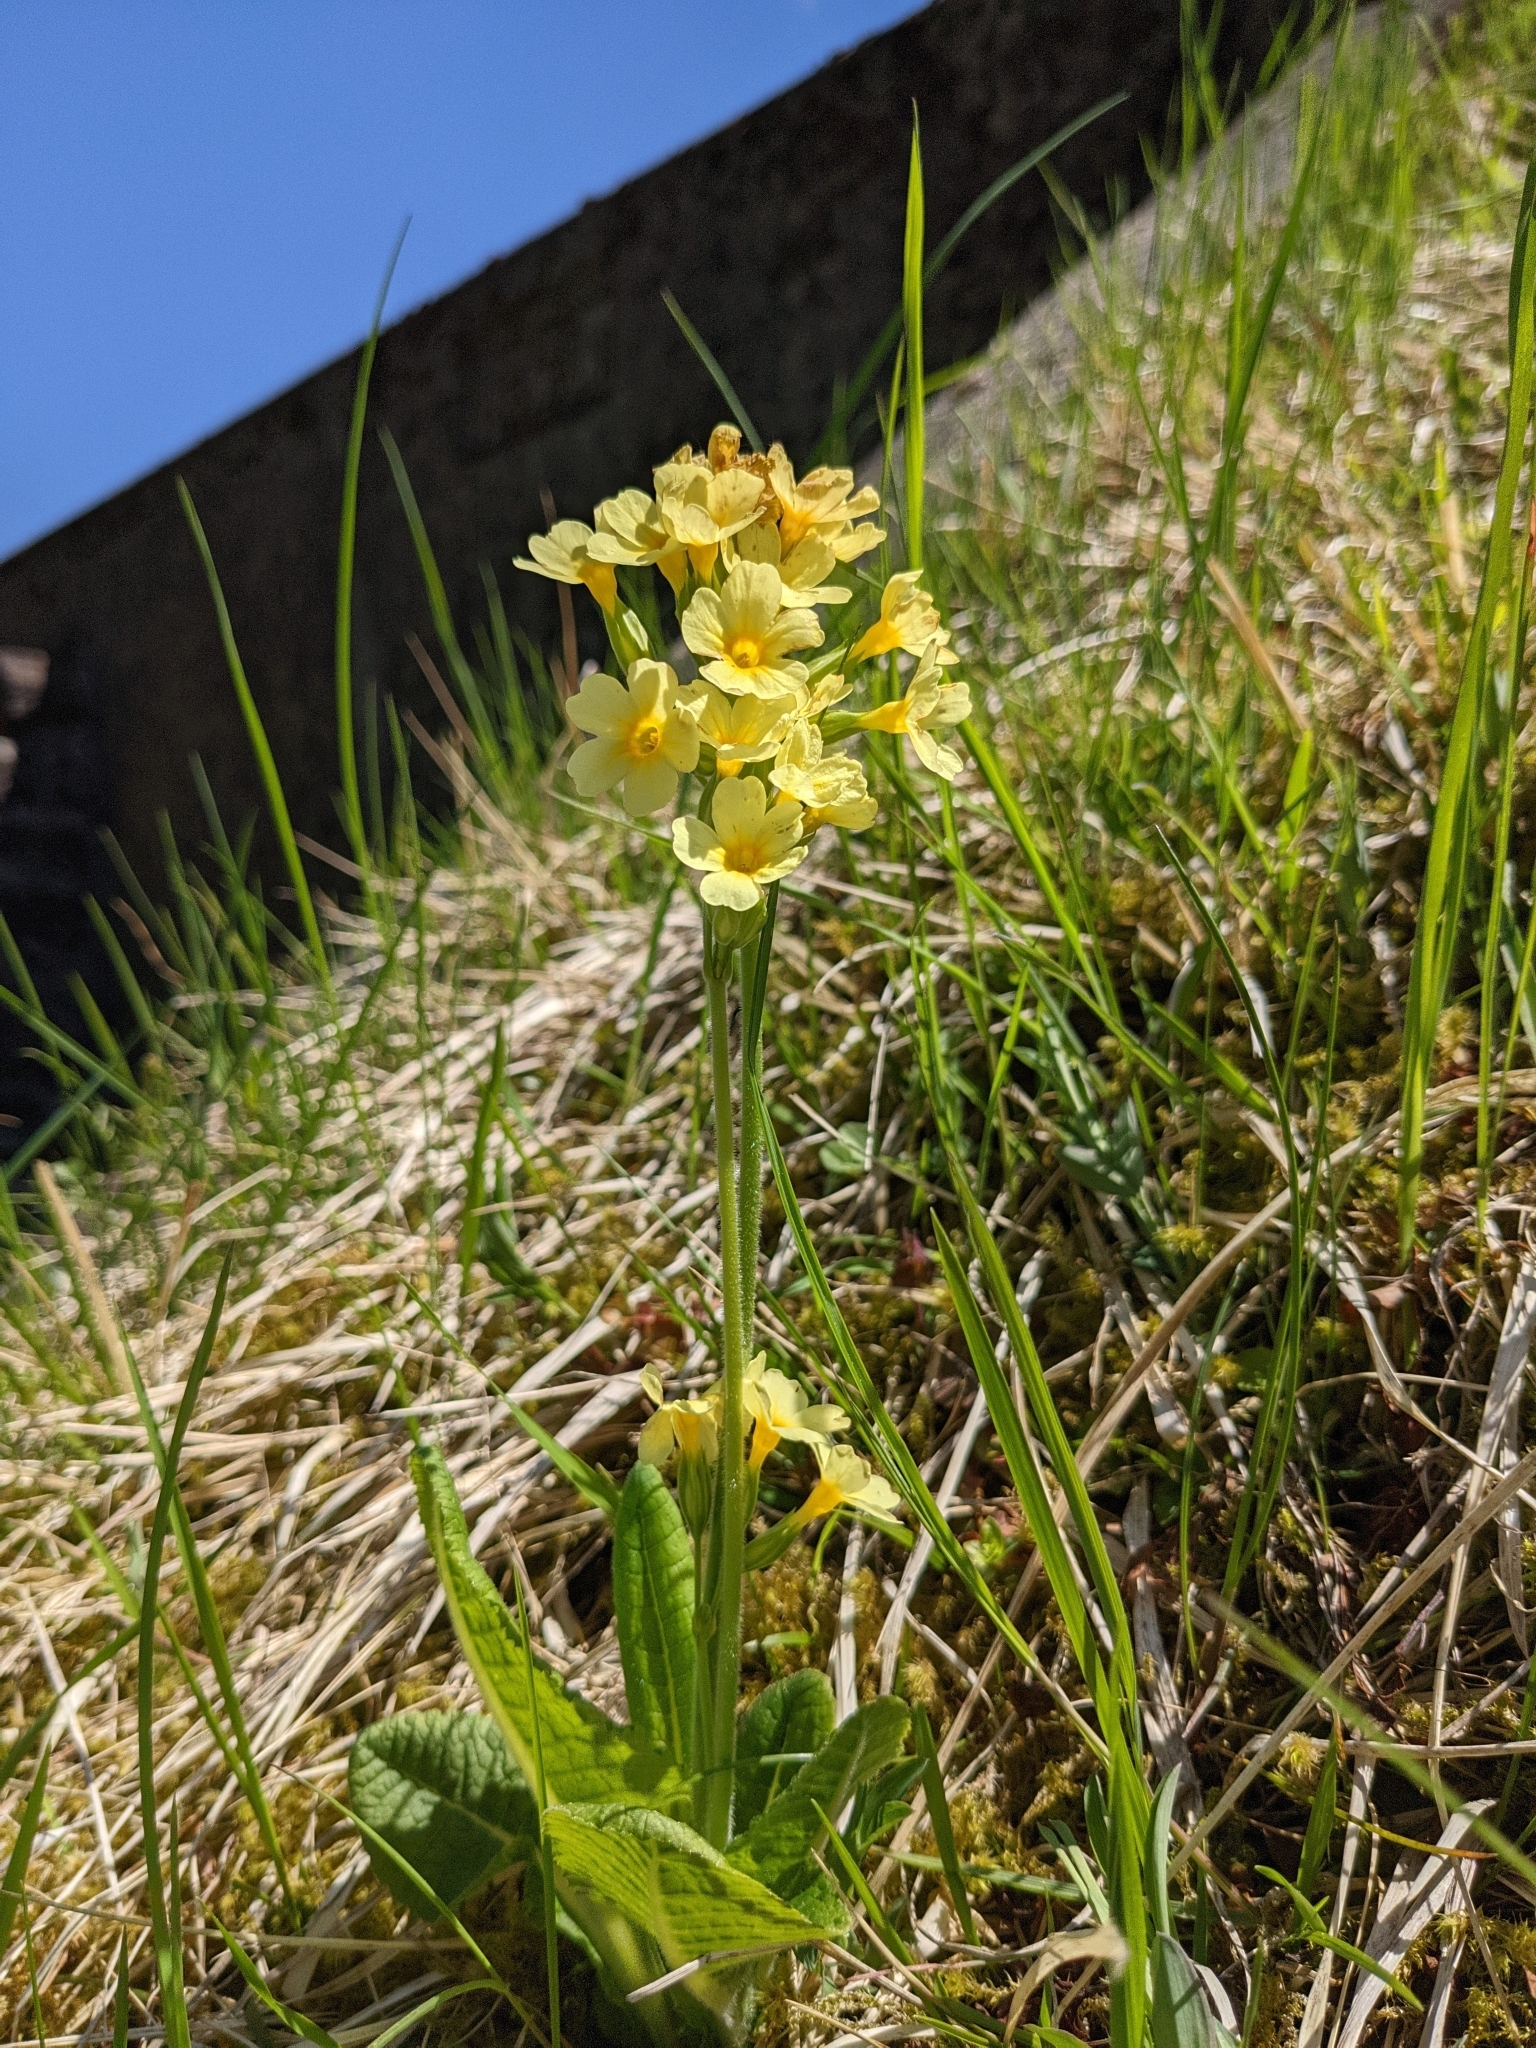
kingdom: Plantae
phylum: Tracheophyta
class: Magnoliopsida
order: Ericales
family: Primulaceae
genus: Primula
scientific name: Primula elatior
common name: Oxlip
